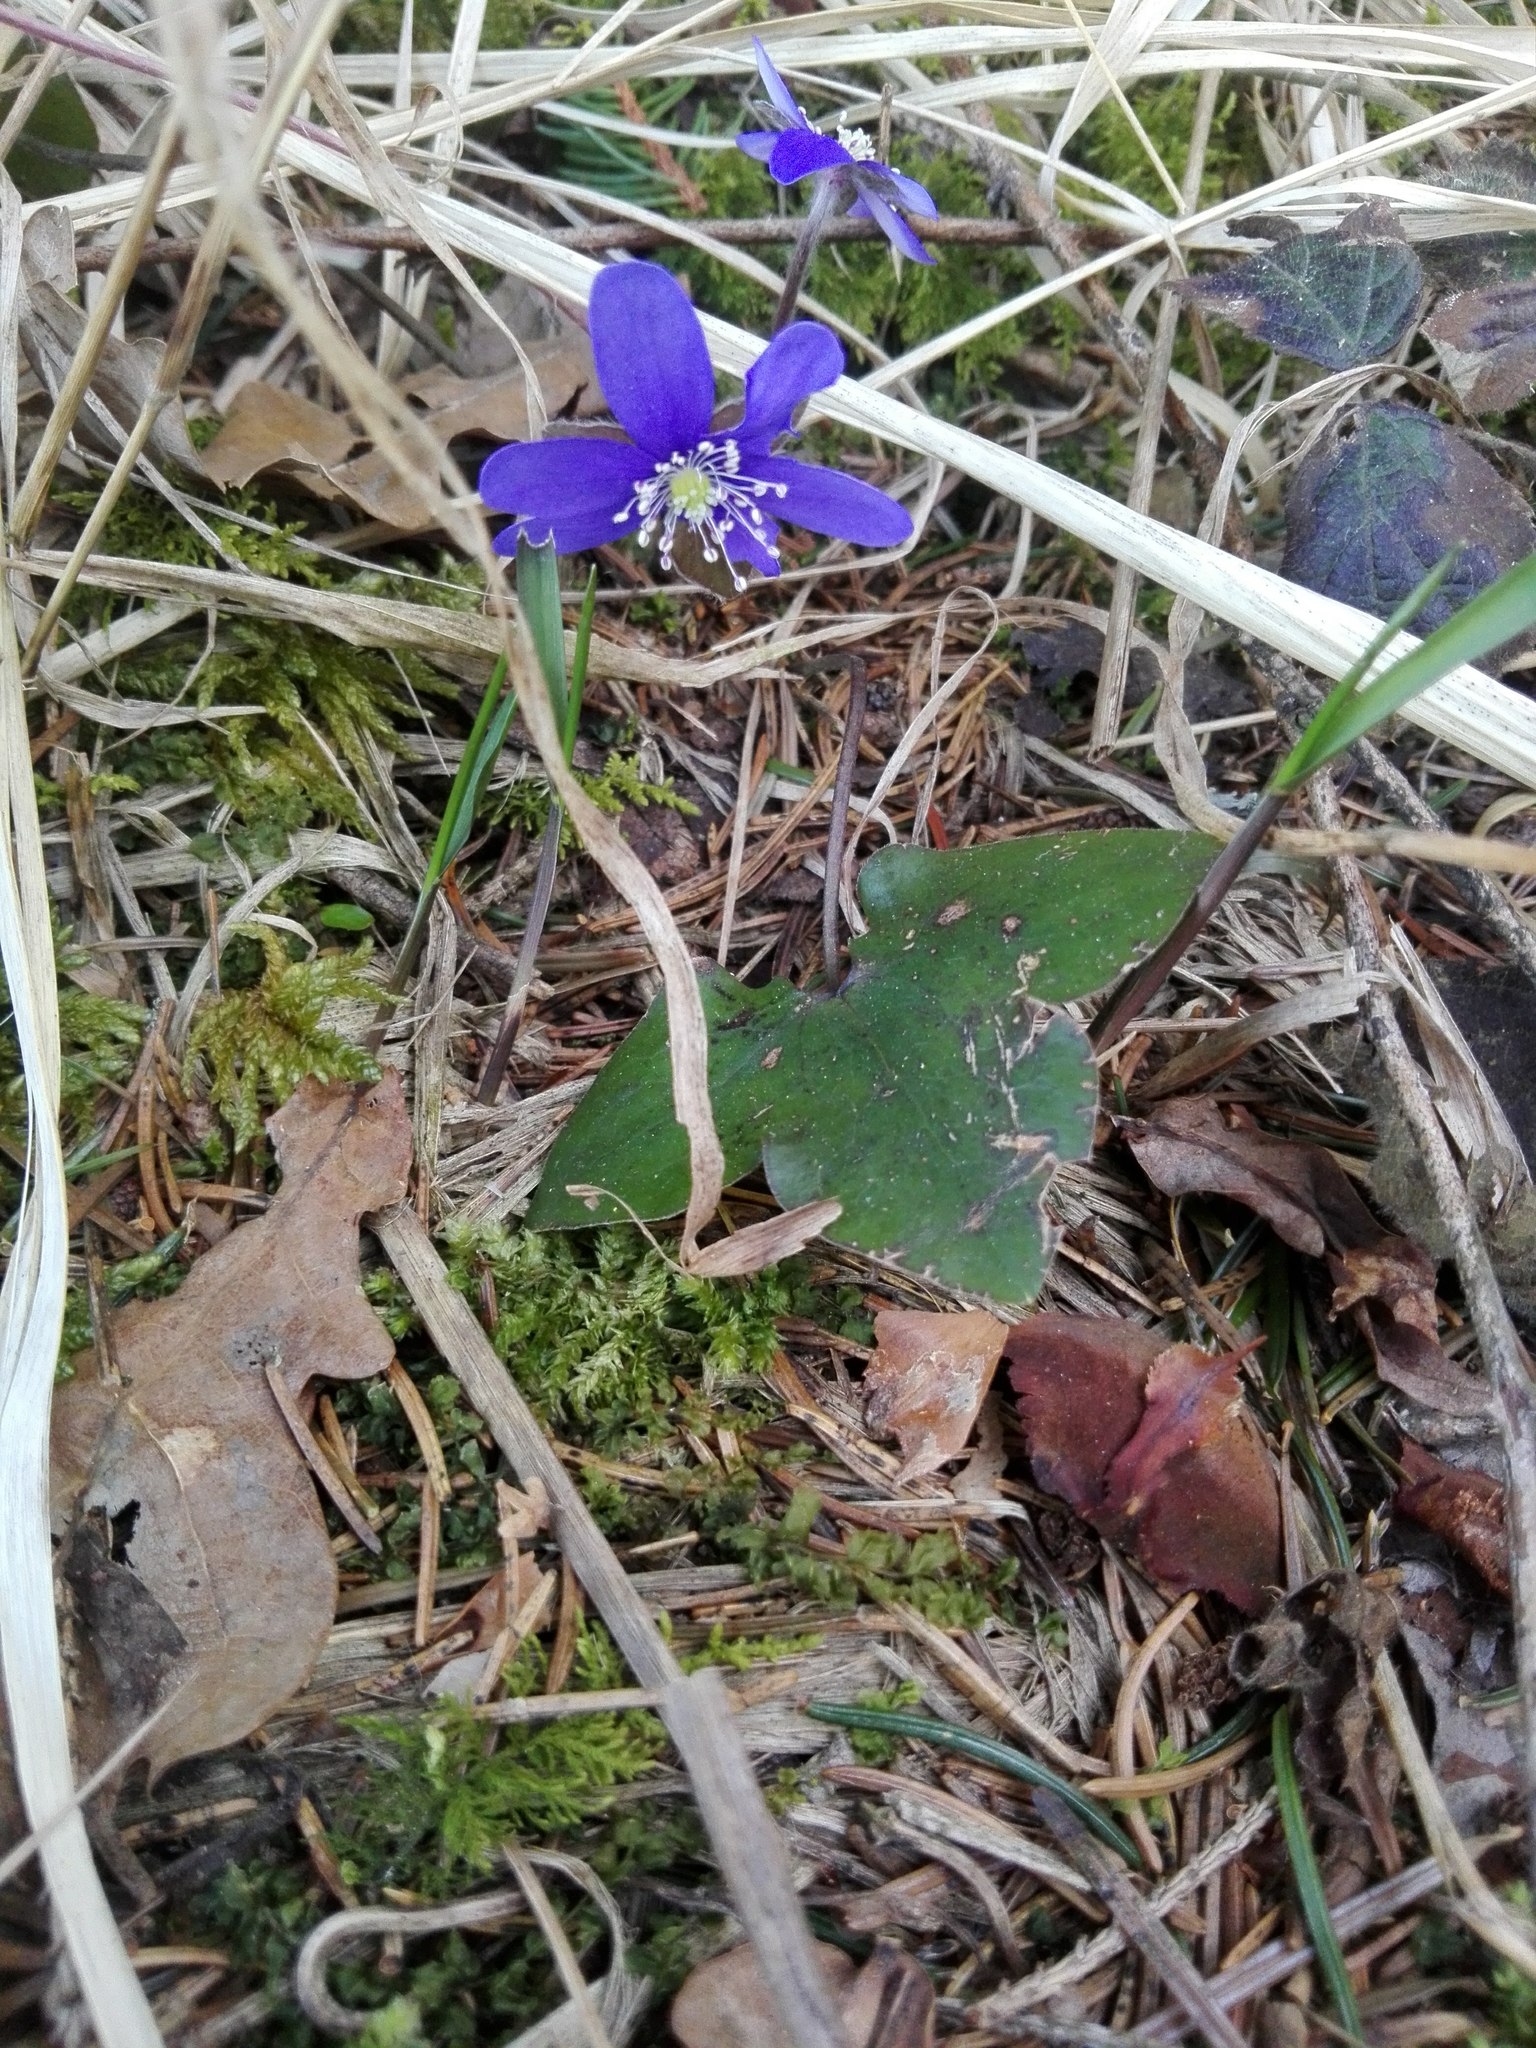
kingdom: Plantae
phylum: Tracheophyta
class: Magnoliopsida
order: Ranunculales
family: Ranunculaceae
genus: Hepatica
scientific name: Hepatica nobilis
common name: Liverleaf
